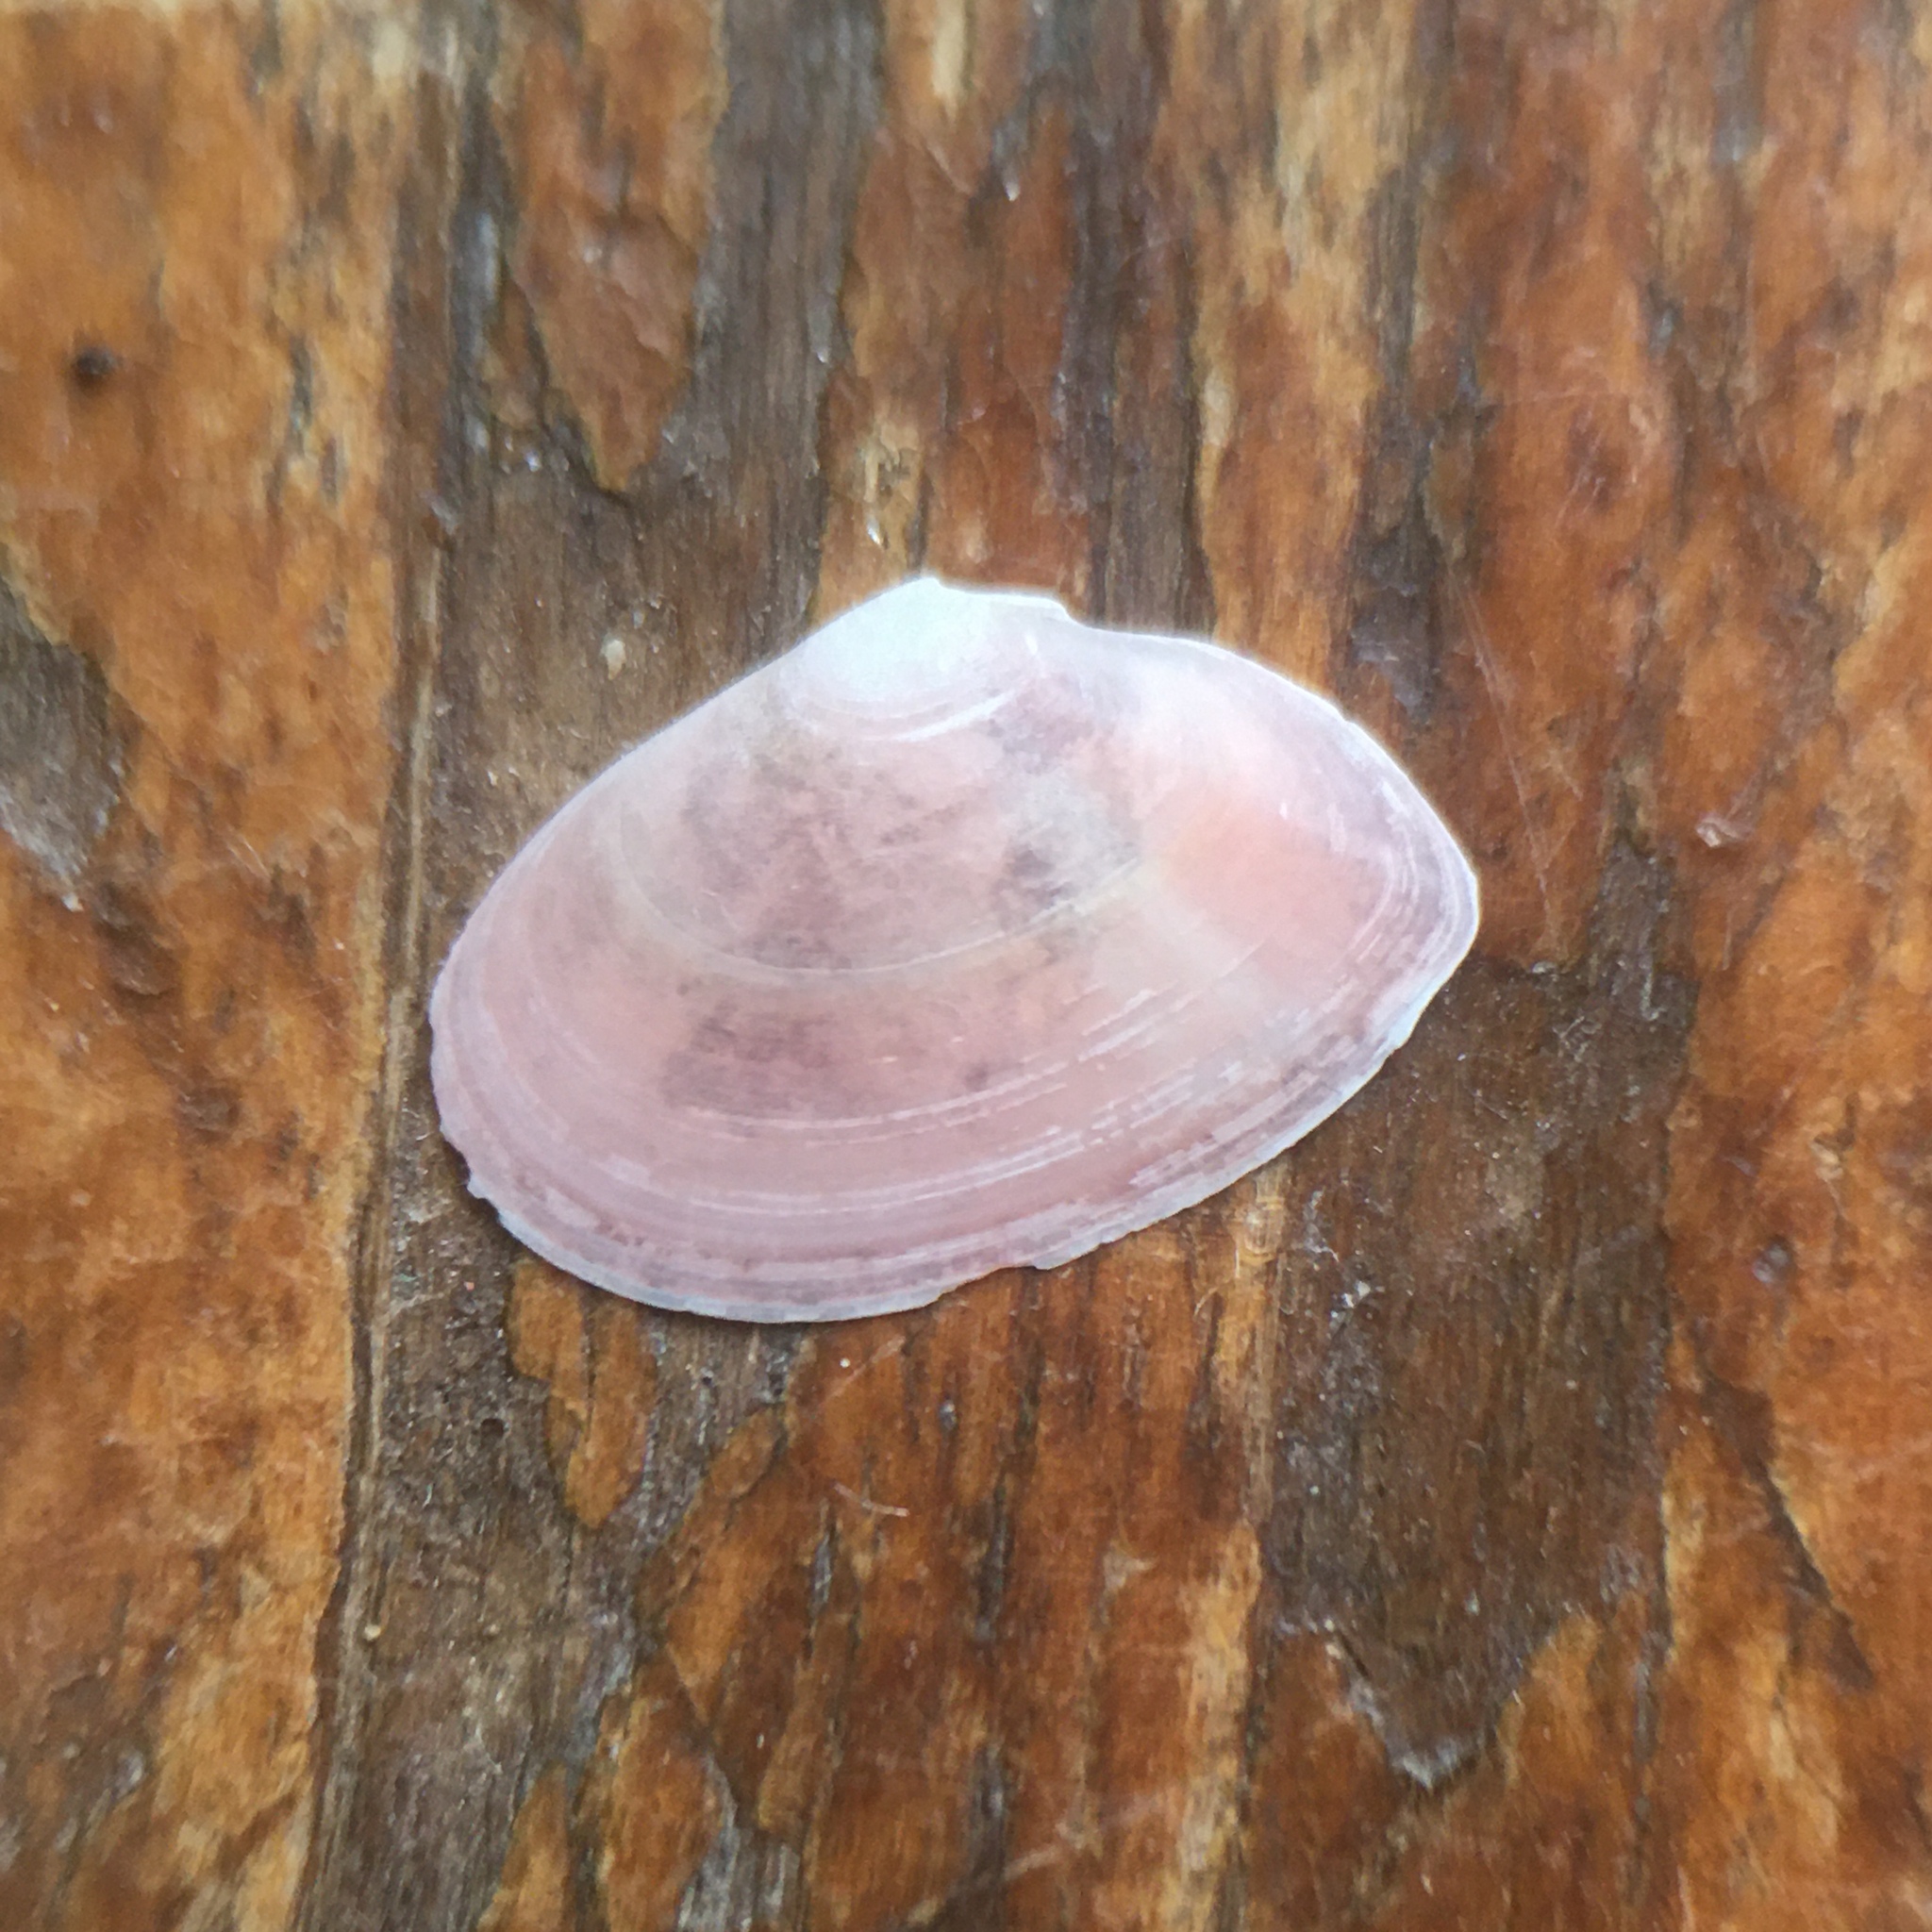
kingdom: Animalia
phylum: Mollusca
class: Bivalvia
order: Cardiida
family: Tellinidae
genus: Macomangulus
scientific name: Macomangulus tenuis
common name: Thin tellin
